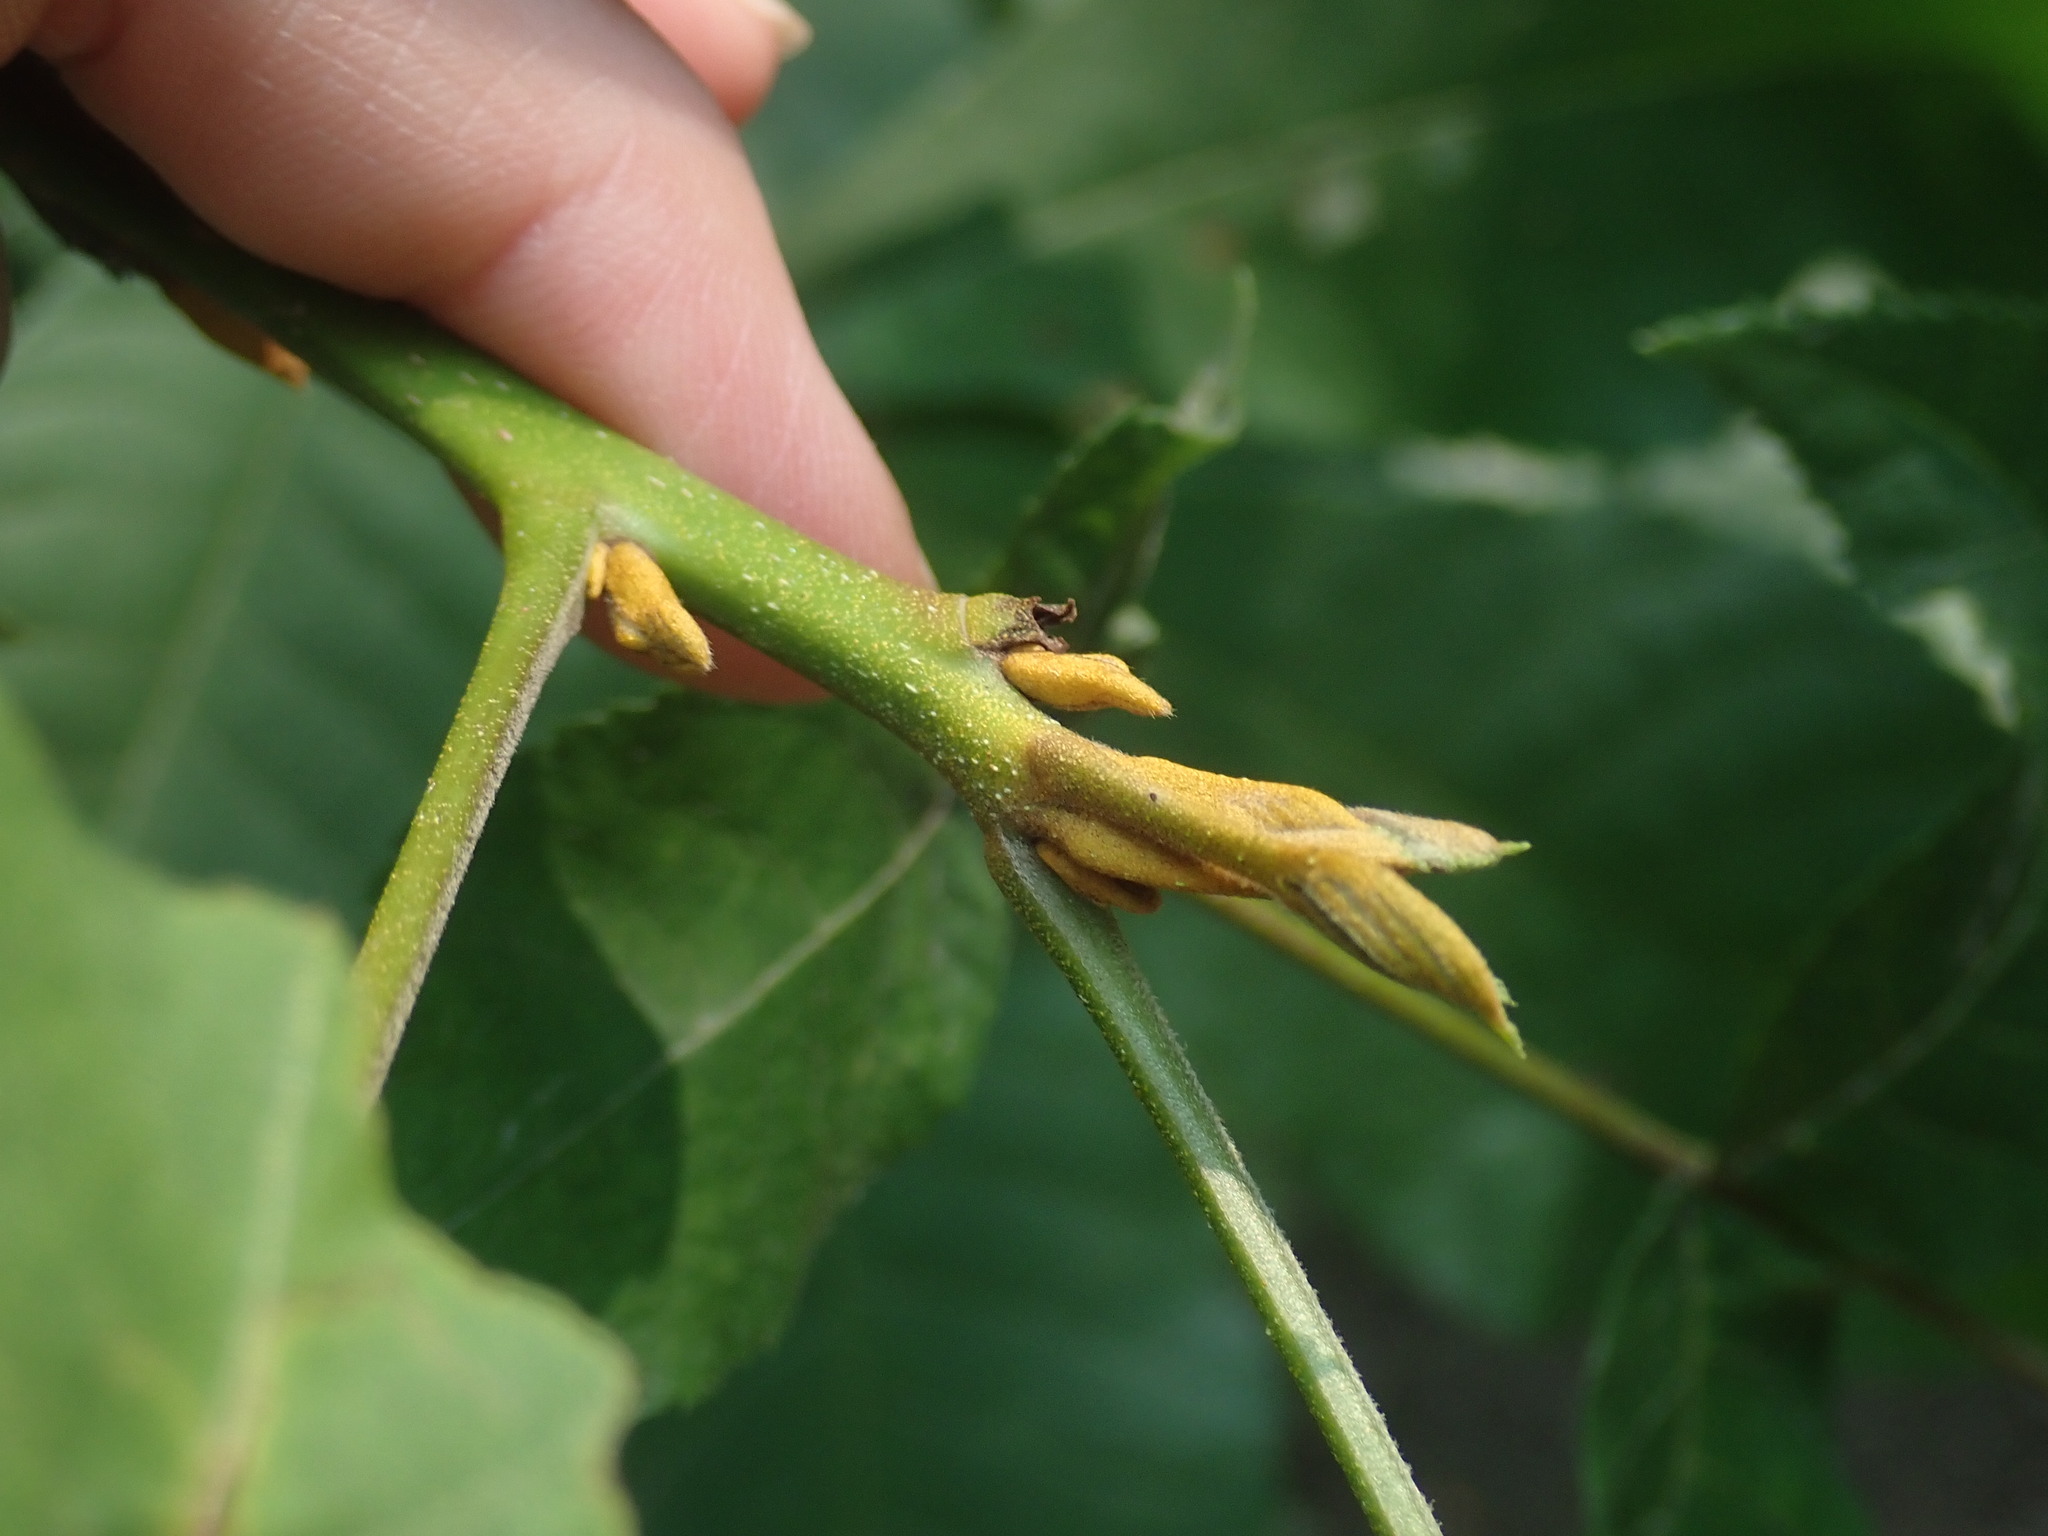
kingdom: Plantae
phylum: Tracheophyta
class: Magnoliopsida
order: Fagales
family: Juglandaceae
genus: Carya
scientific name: Carya cordiformis
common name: Bitternut hickory
